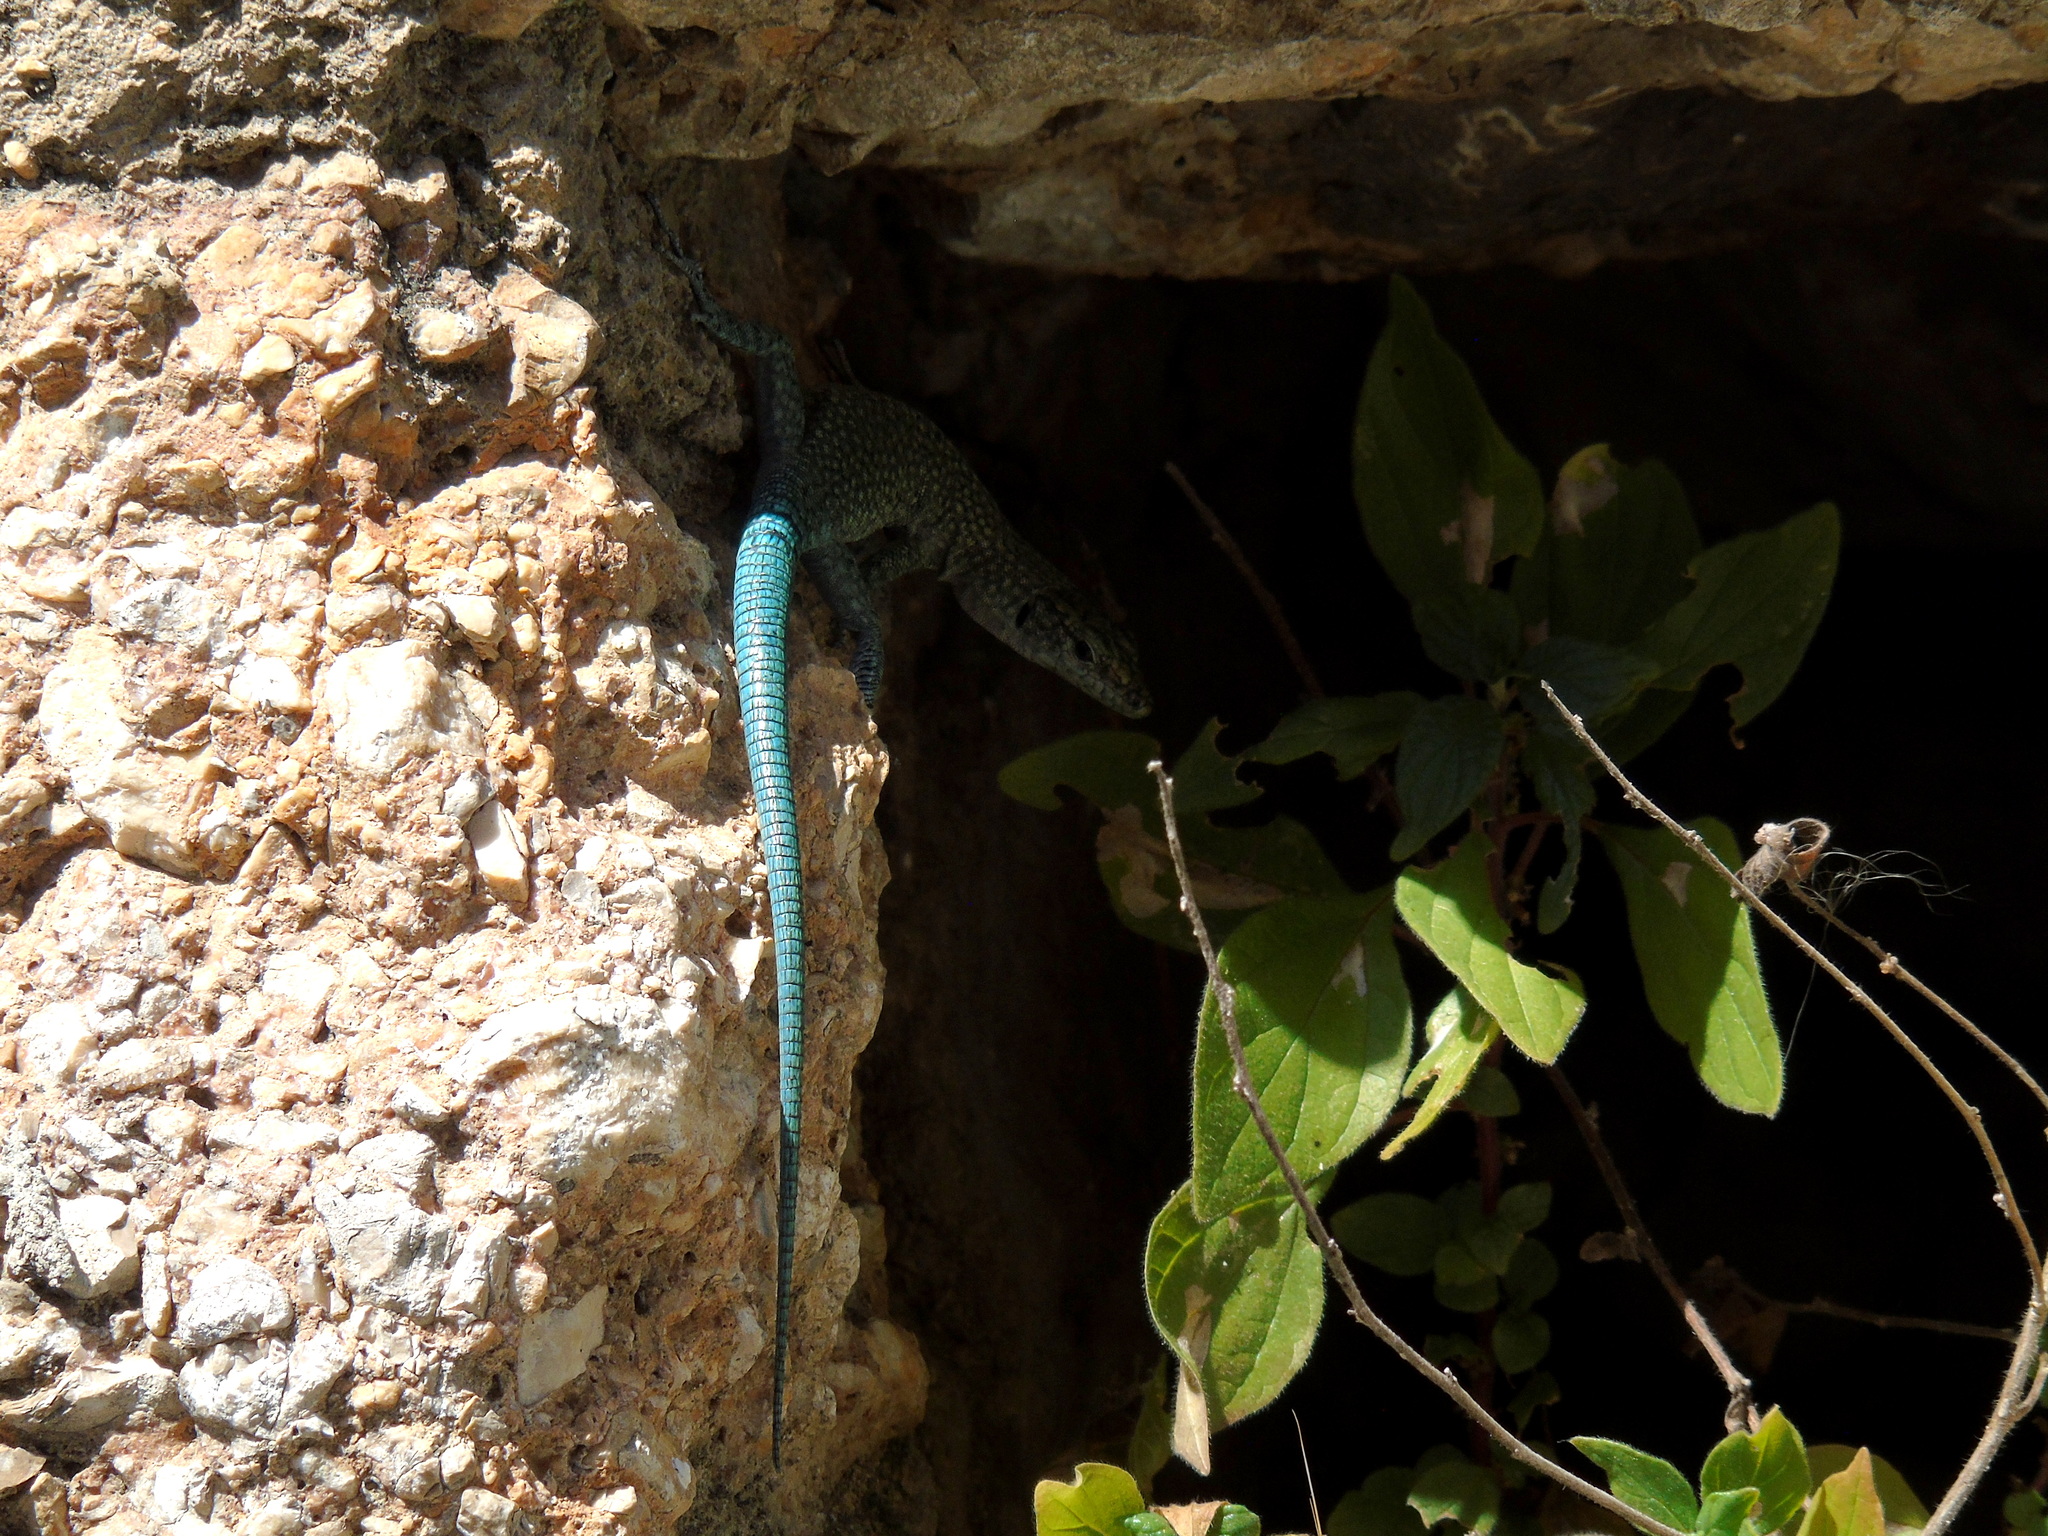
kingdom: Animalia
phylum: Chordata
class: Squamata
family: Lacertidae
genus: Dalmatolacerta
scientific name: Dalmatolacerta oxycephala
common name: Sharp-snouted rock lizard
